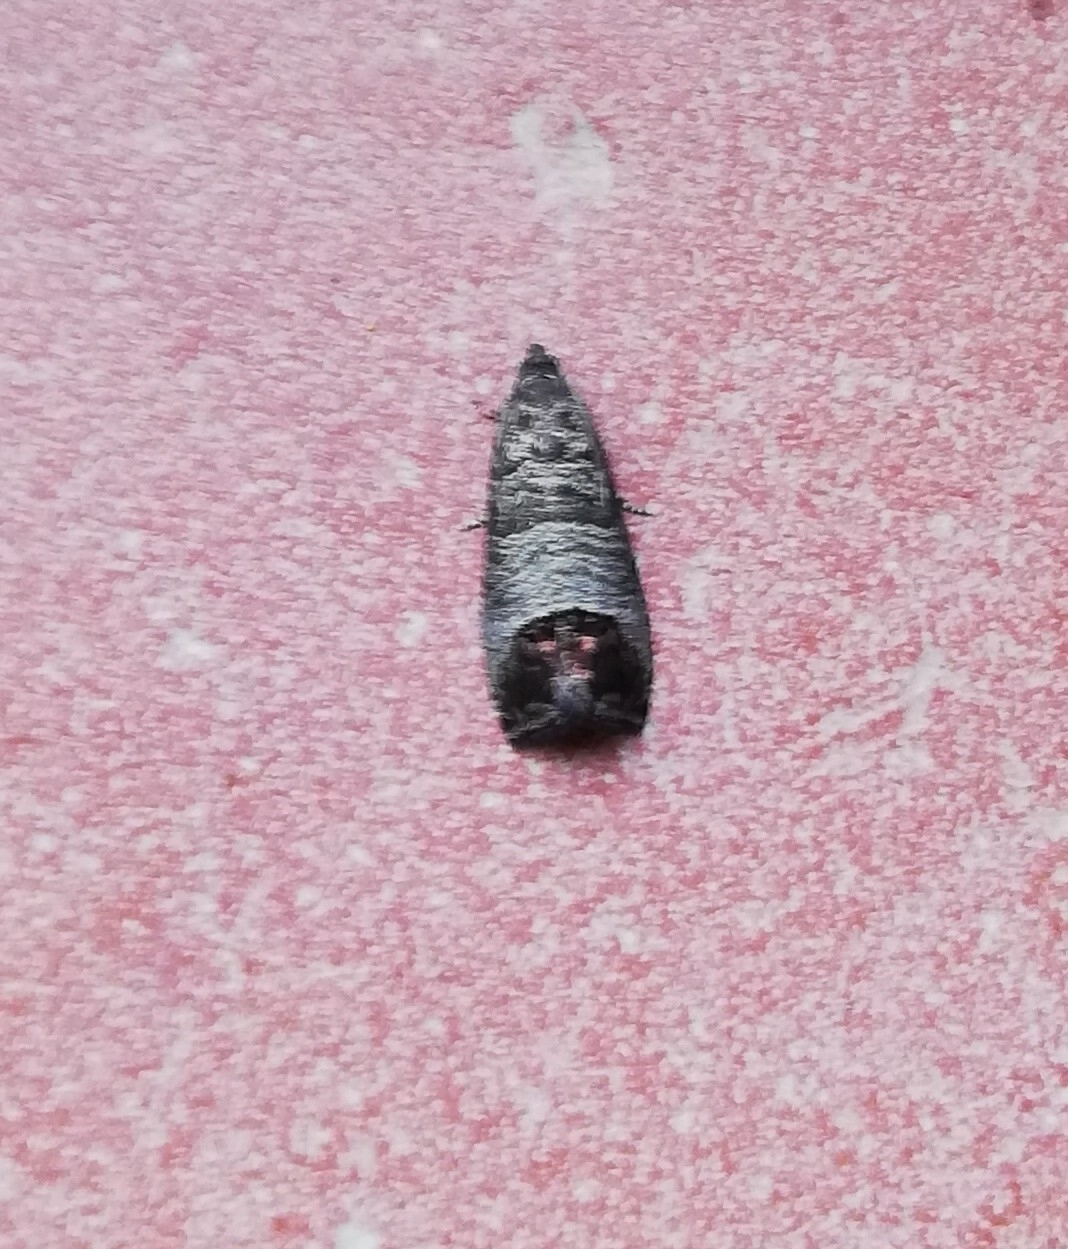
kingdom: Animalia
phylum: Arthropoda
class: Insecta
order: Lepidoptera
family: Tortricidae
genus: Cydia
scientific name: Cydia pomonella
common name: Codling moth
